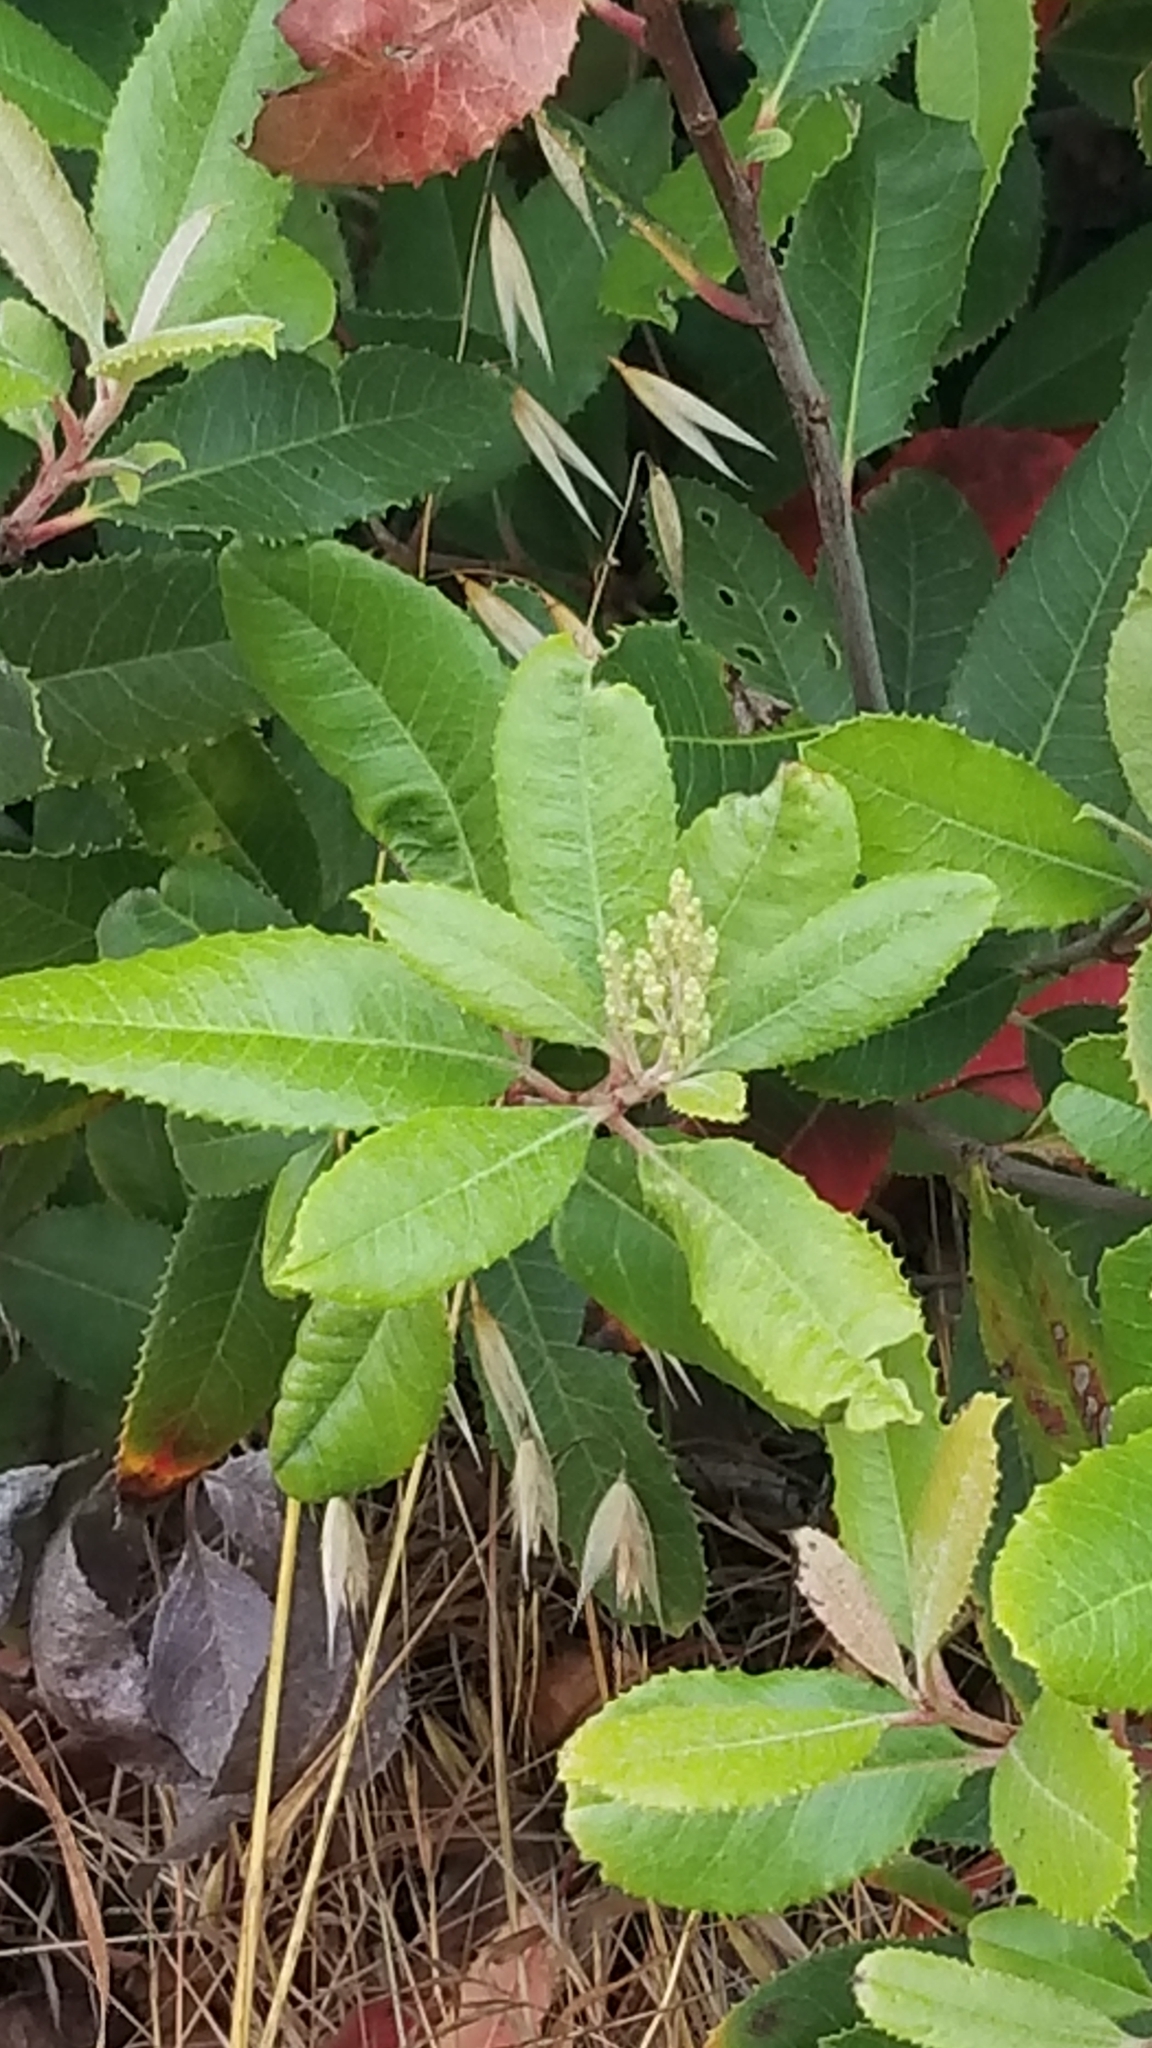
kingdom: Plantae
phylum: Tracheophyta
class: Magnoliopsida
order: Rosales
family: Rosaceae
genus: Heteromeles
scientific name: Heteromeles arbutifolia
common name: California-holly
